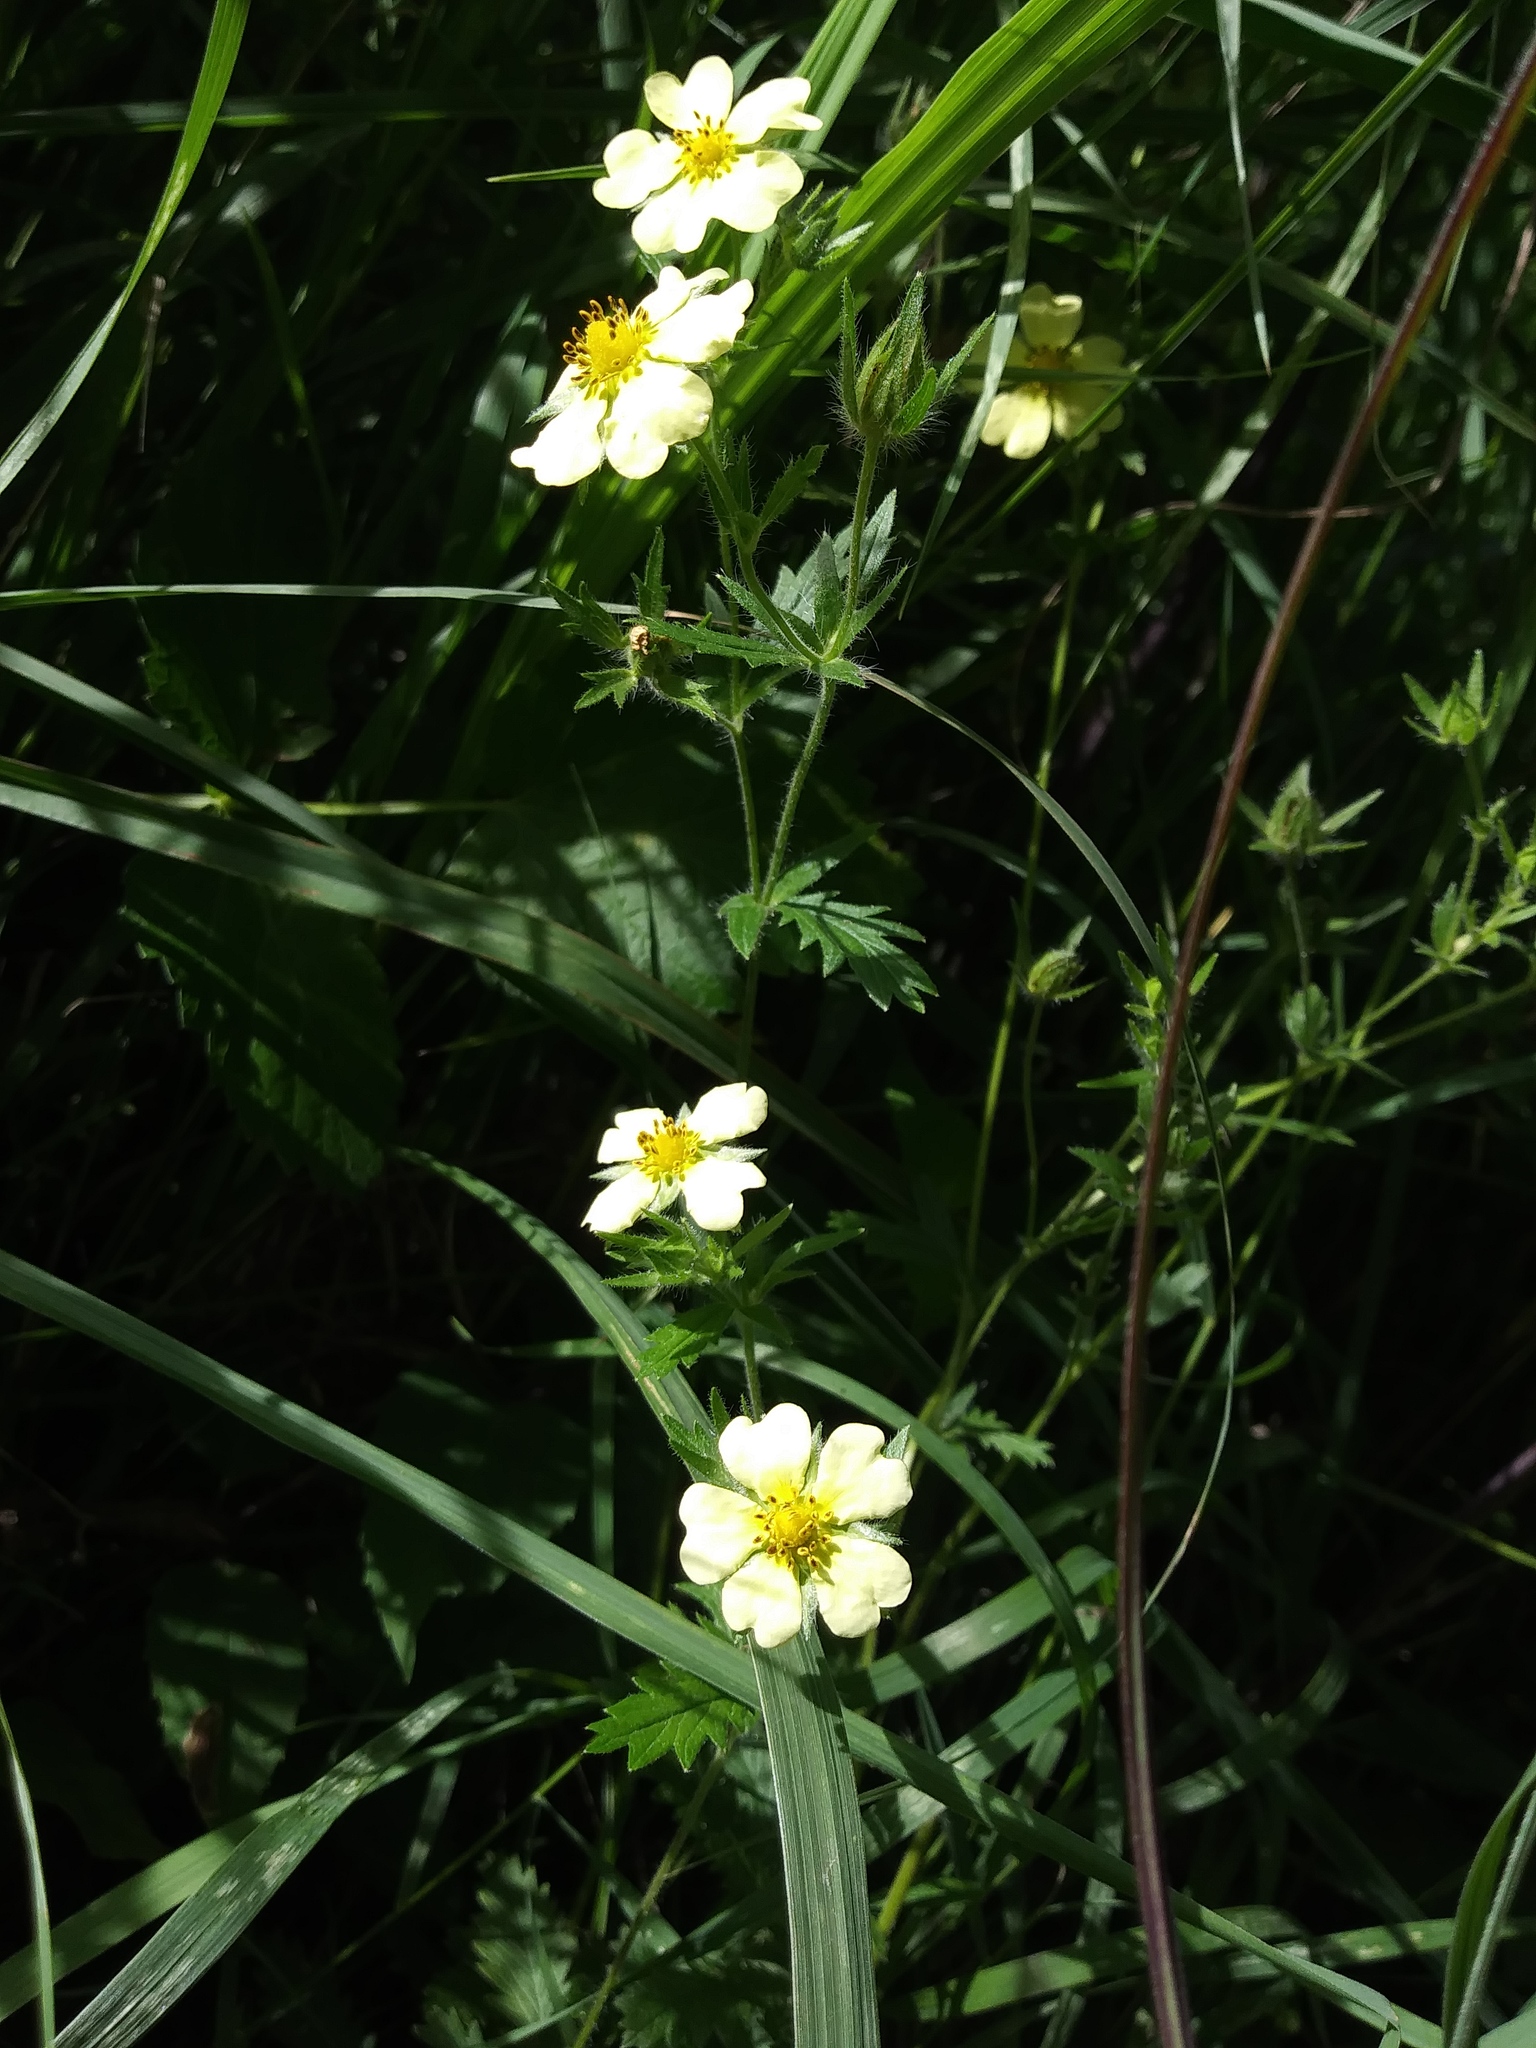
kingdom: Plantae
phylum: Tracheophyta
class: Magnoliopsida
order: Rosales
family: Rosaceae
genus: Potentilla
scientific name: Potentilla recta
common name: Sulphur cinquefoil
